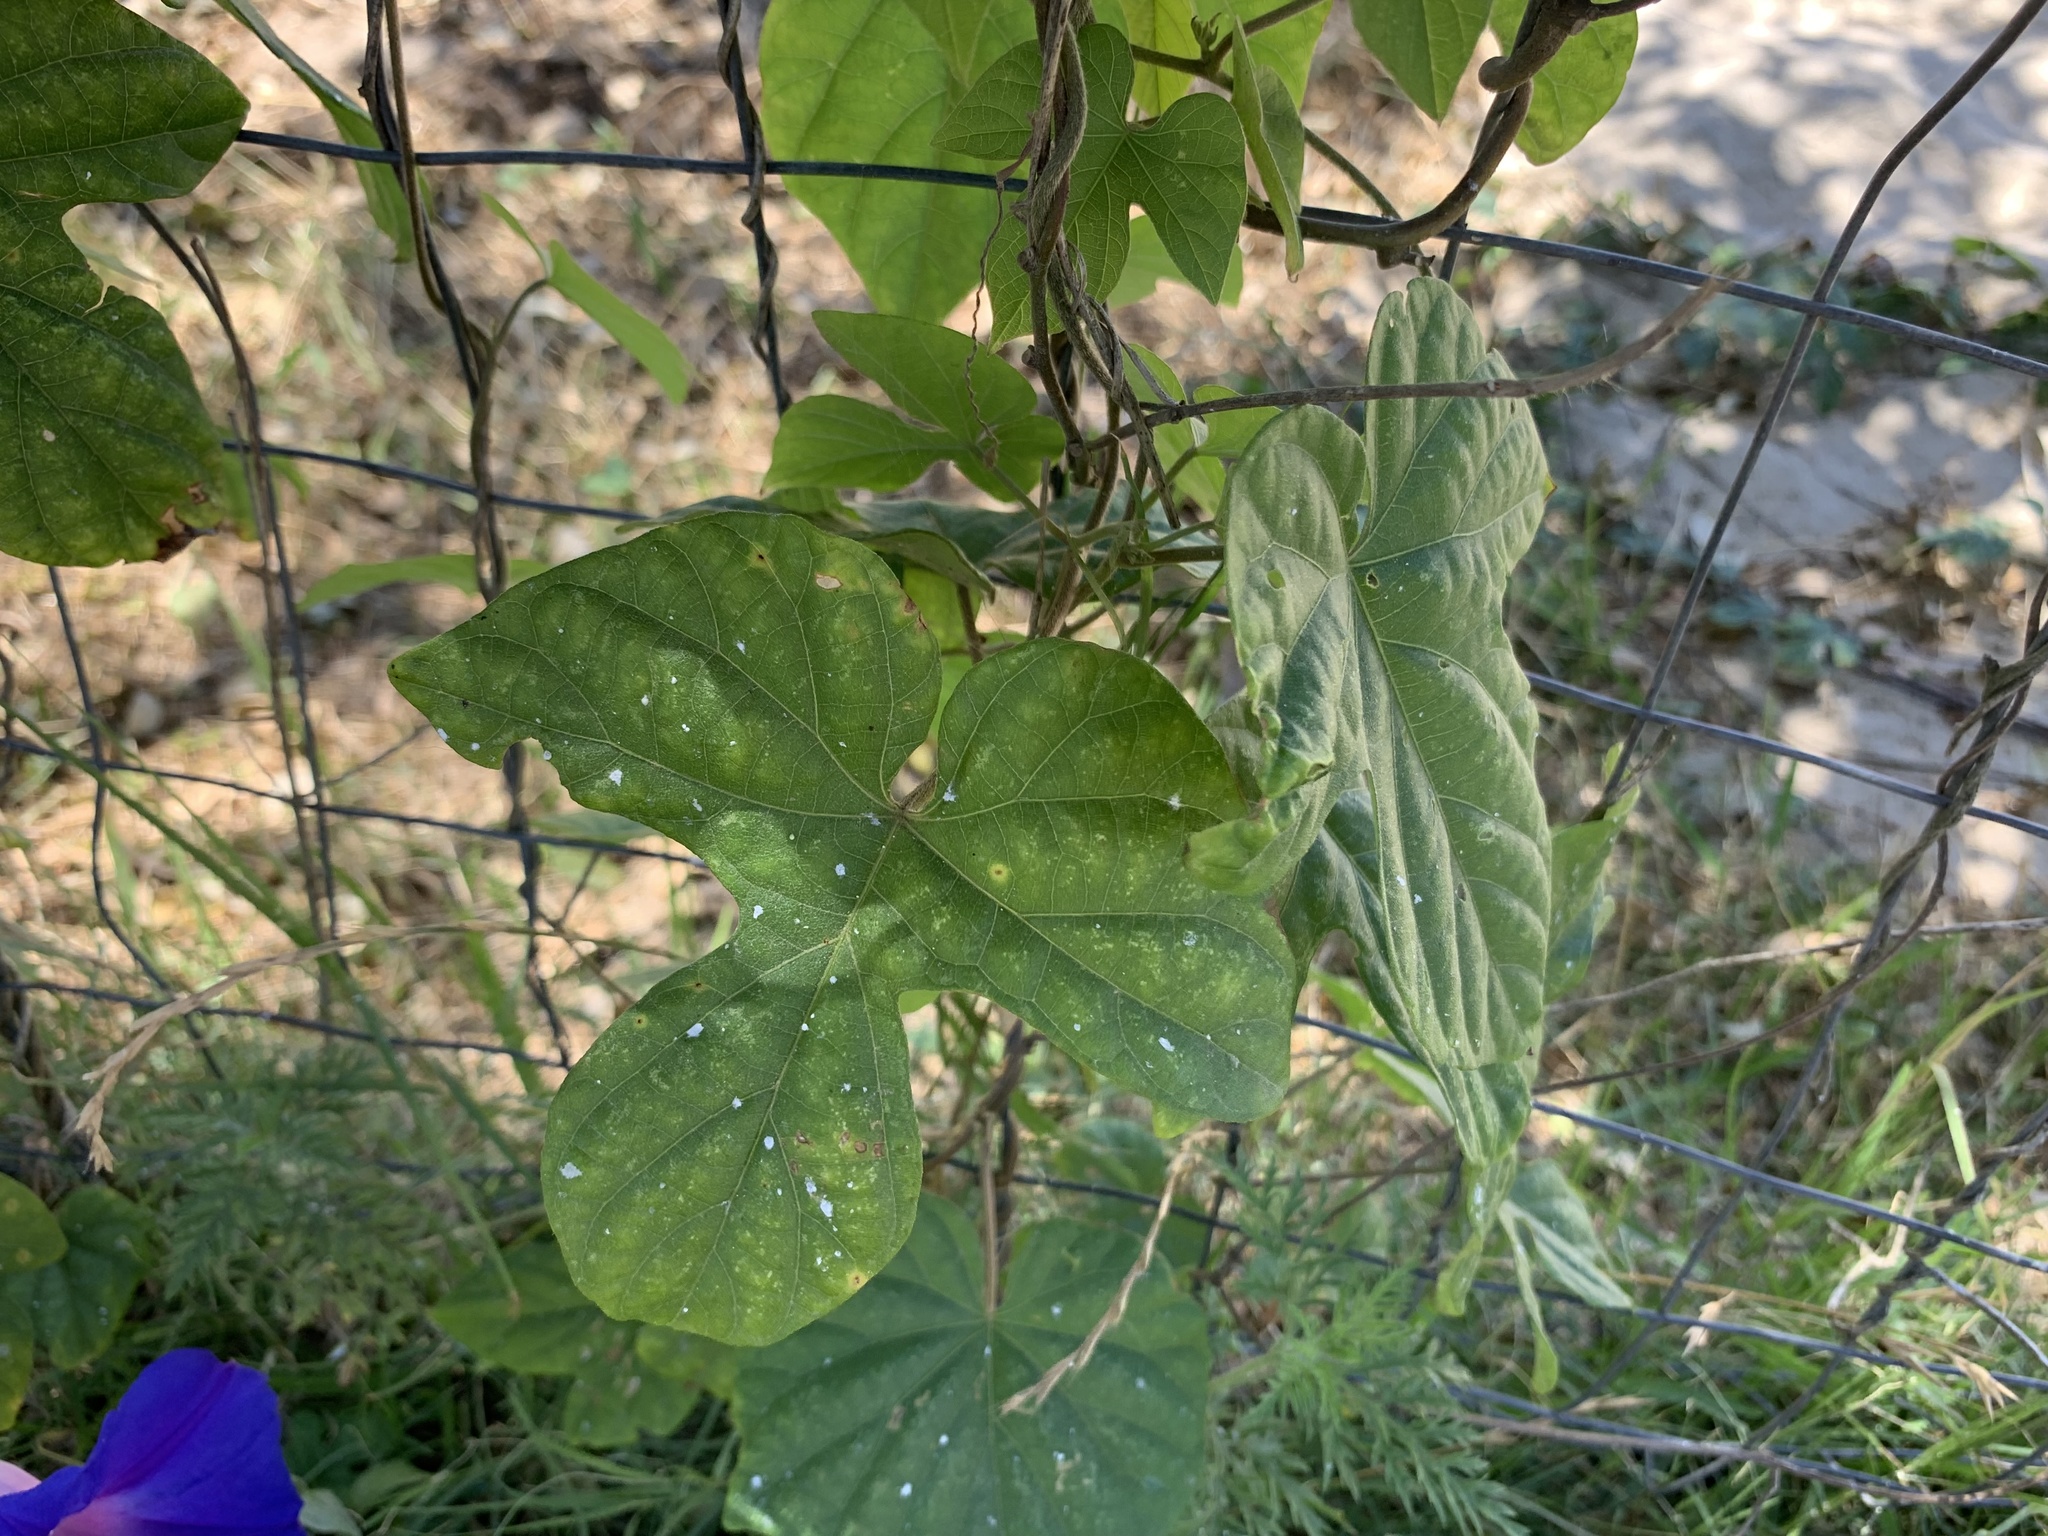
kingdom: Plantae
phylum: Tracheophyta
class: Magnoliopsida
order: Solanales
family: Convolvulaceae
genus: Ipomoea
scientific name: Ipomoea indica
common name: Blue dawnflower
